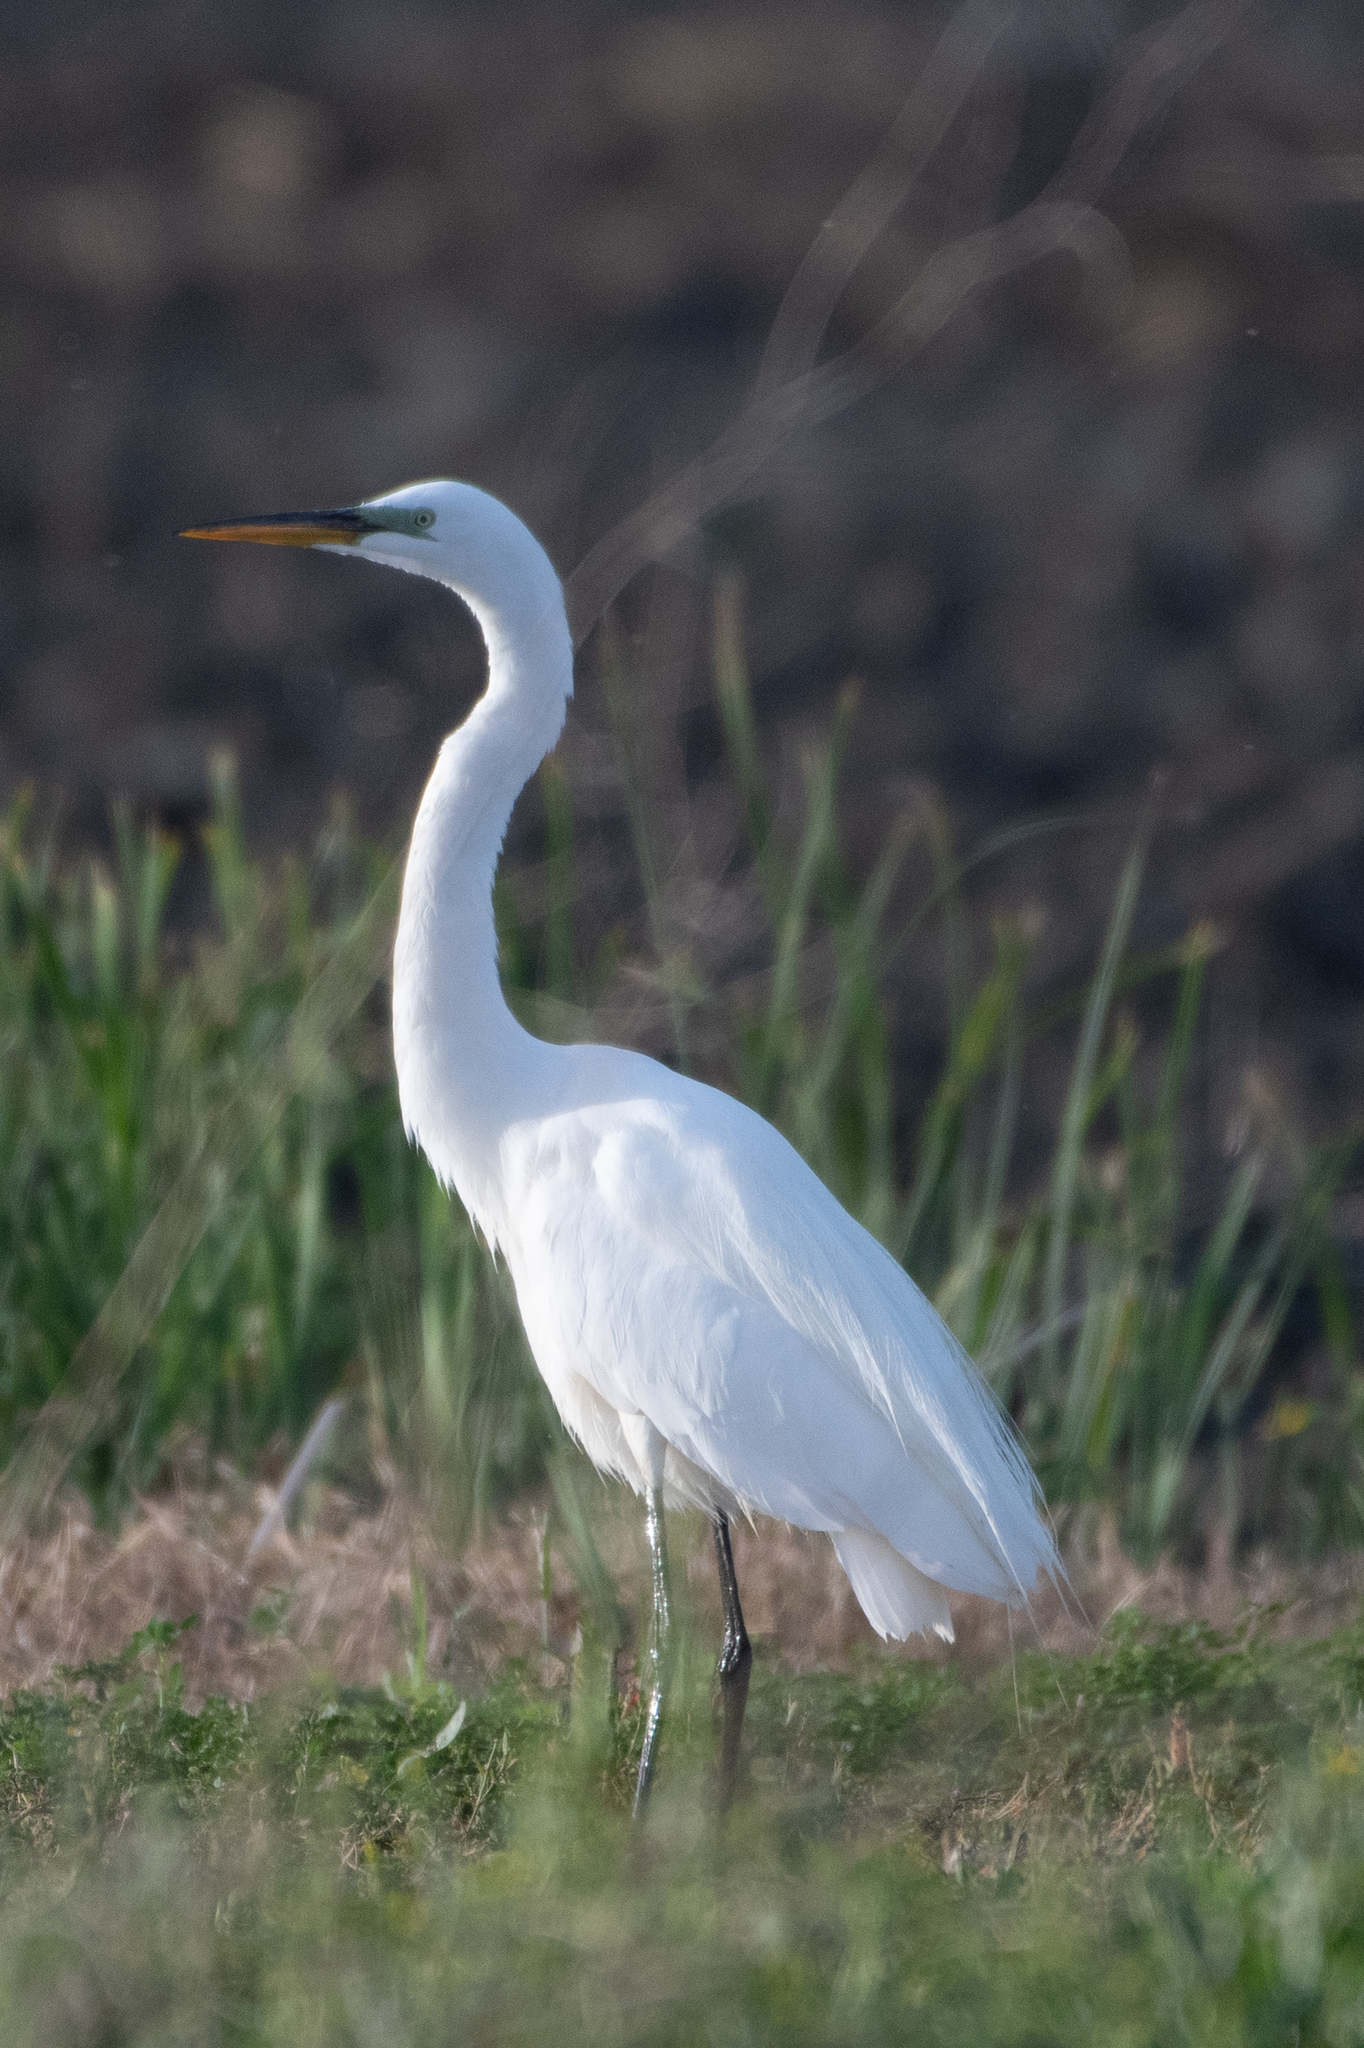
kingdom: Animalia
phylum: Chordata
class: Aves
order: Pelecaniformes
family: Ardeidae
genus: Ardea
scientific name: Ardea alba
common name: Great egret
